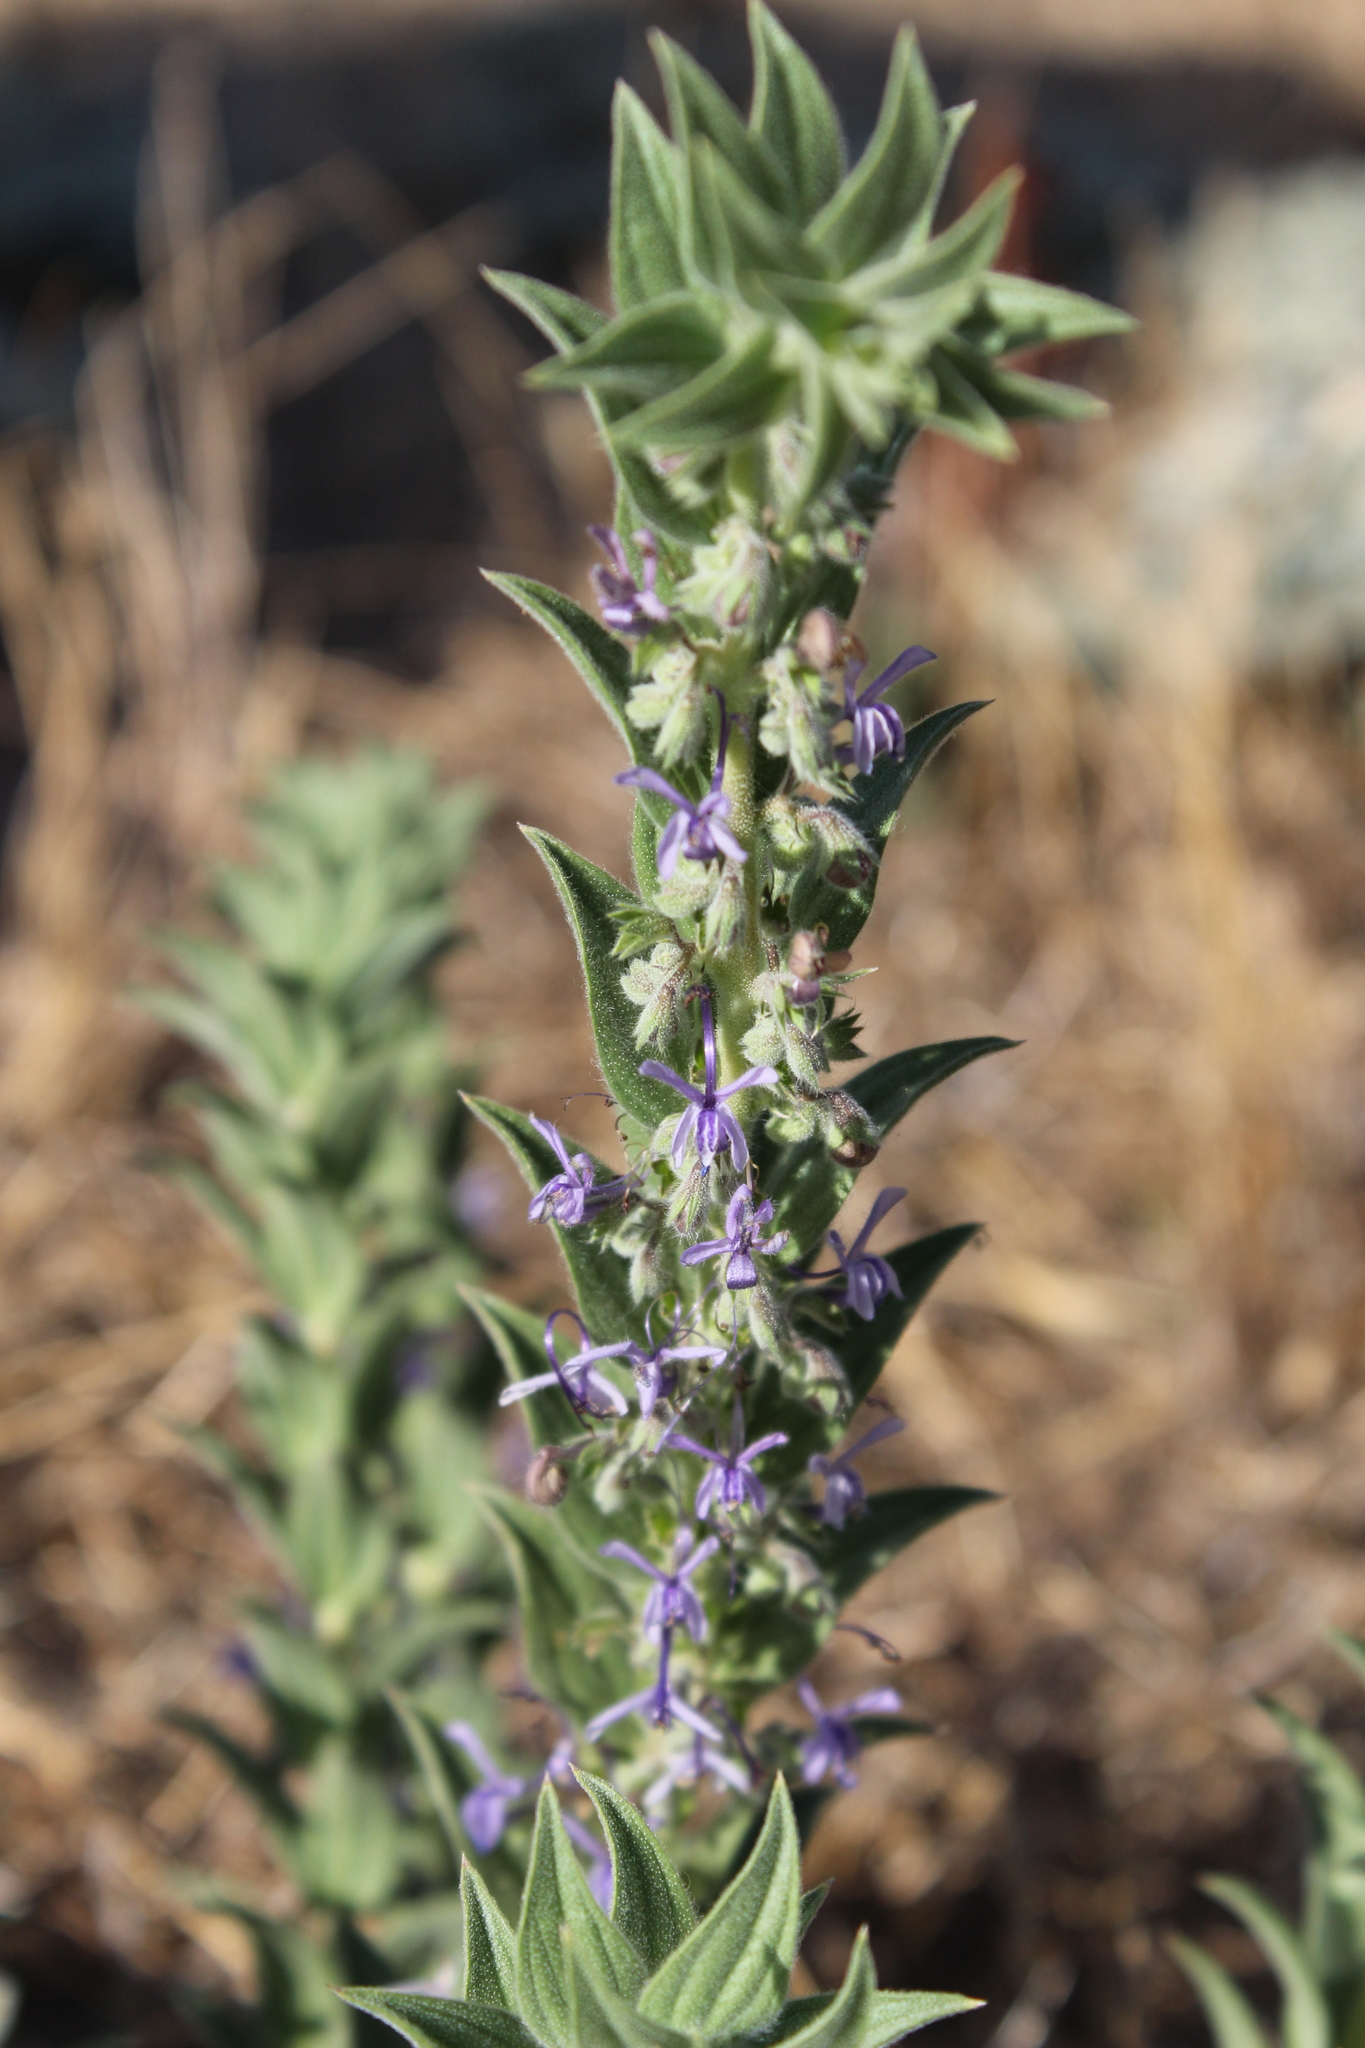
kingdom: Plantae
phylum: Tracheophyta
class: Magnoliopsida
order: Lamiales
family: Lamiaceae
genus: Trichostema
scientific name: Trichostema lanceolatum
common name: Vinegar-weed
